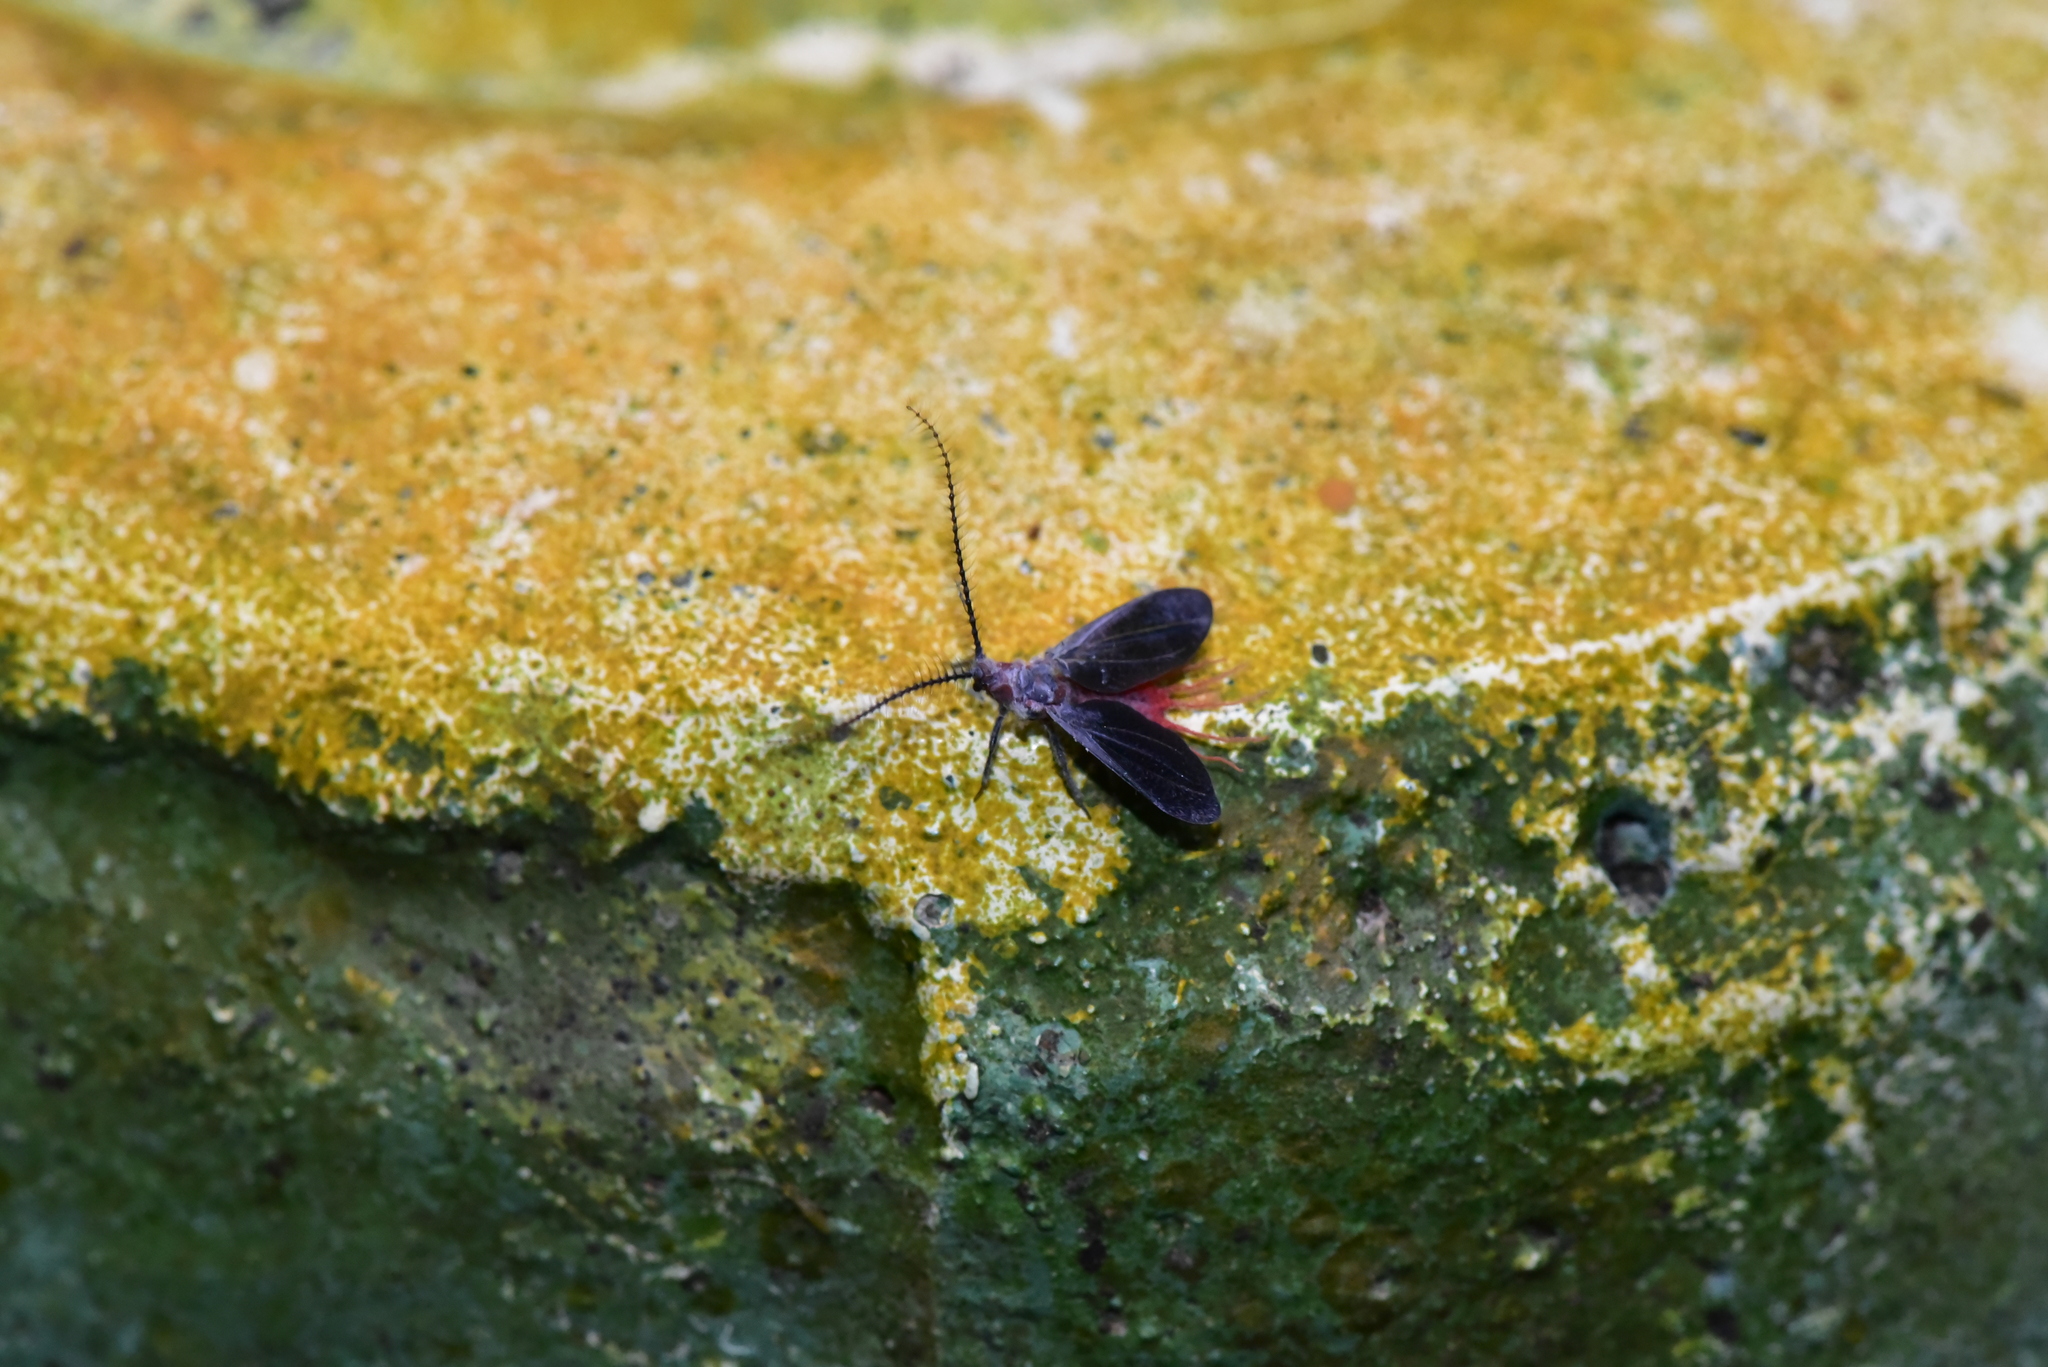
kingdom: Animalia
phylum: Arthropoda
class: Insecta
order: Hemiptera
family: Margarodidae
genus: Drosicha
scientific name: Drosicha contrahens
